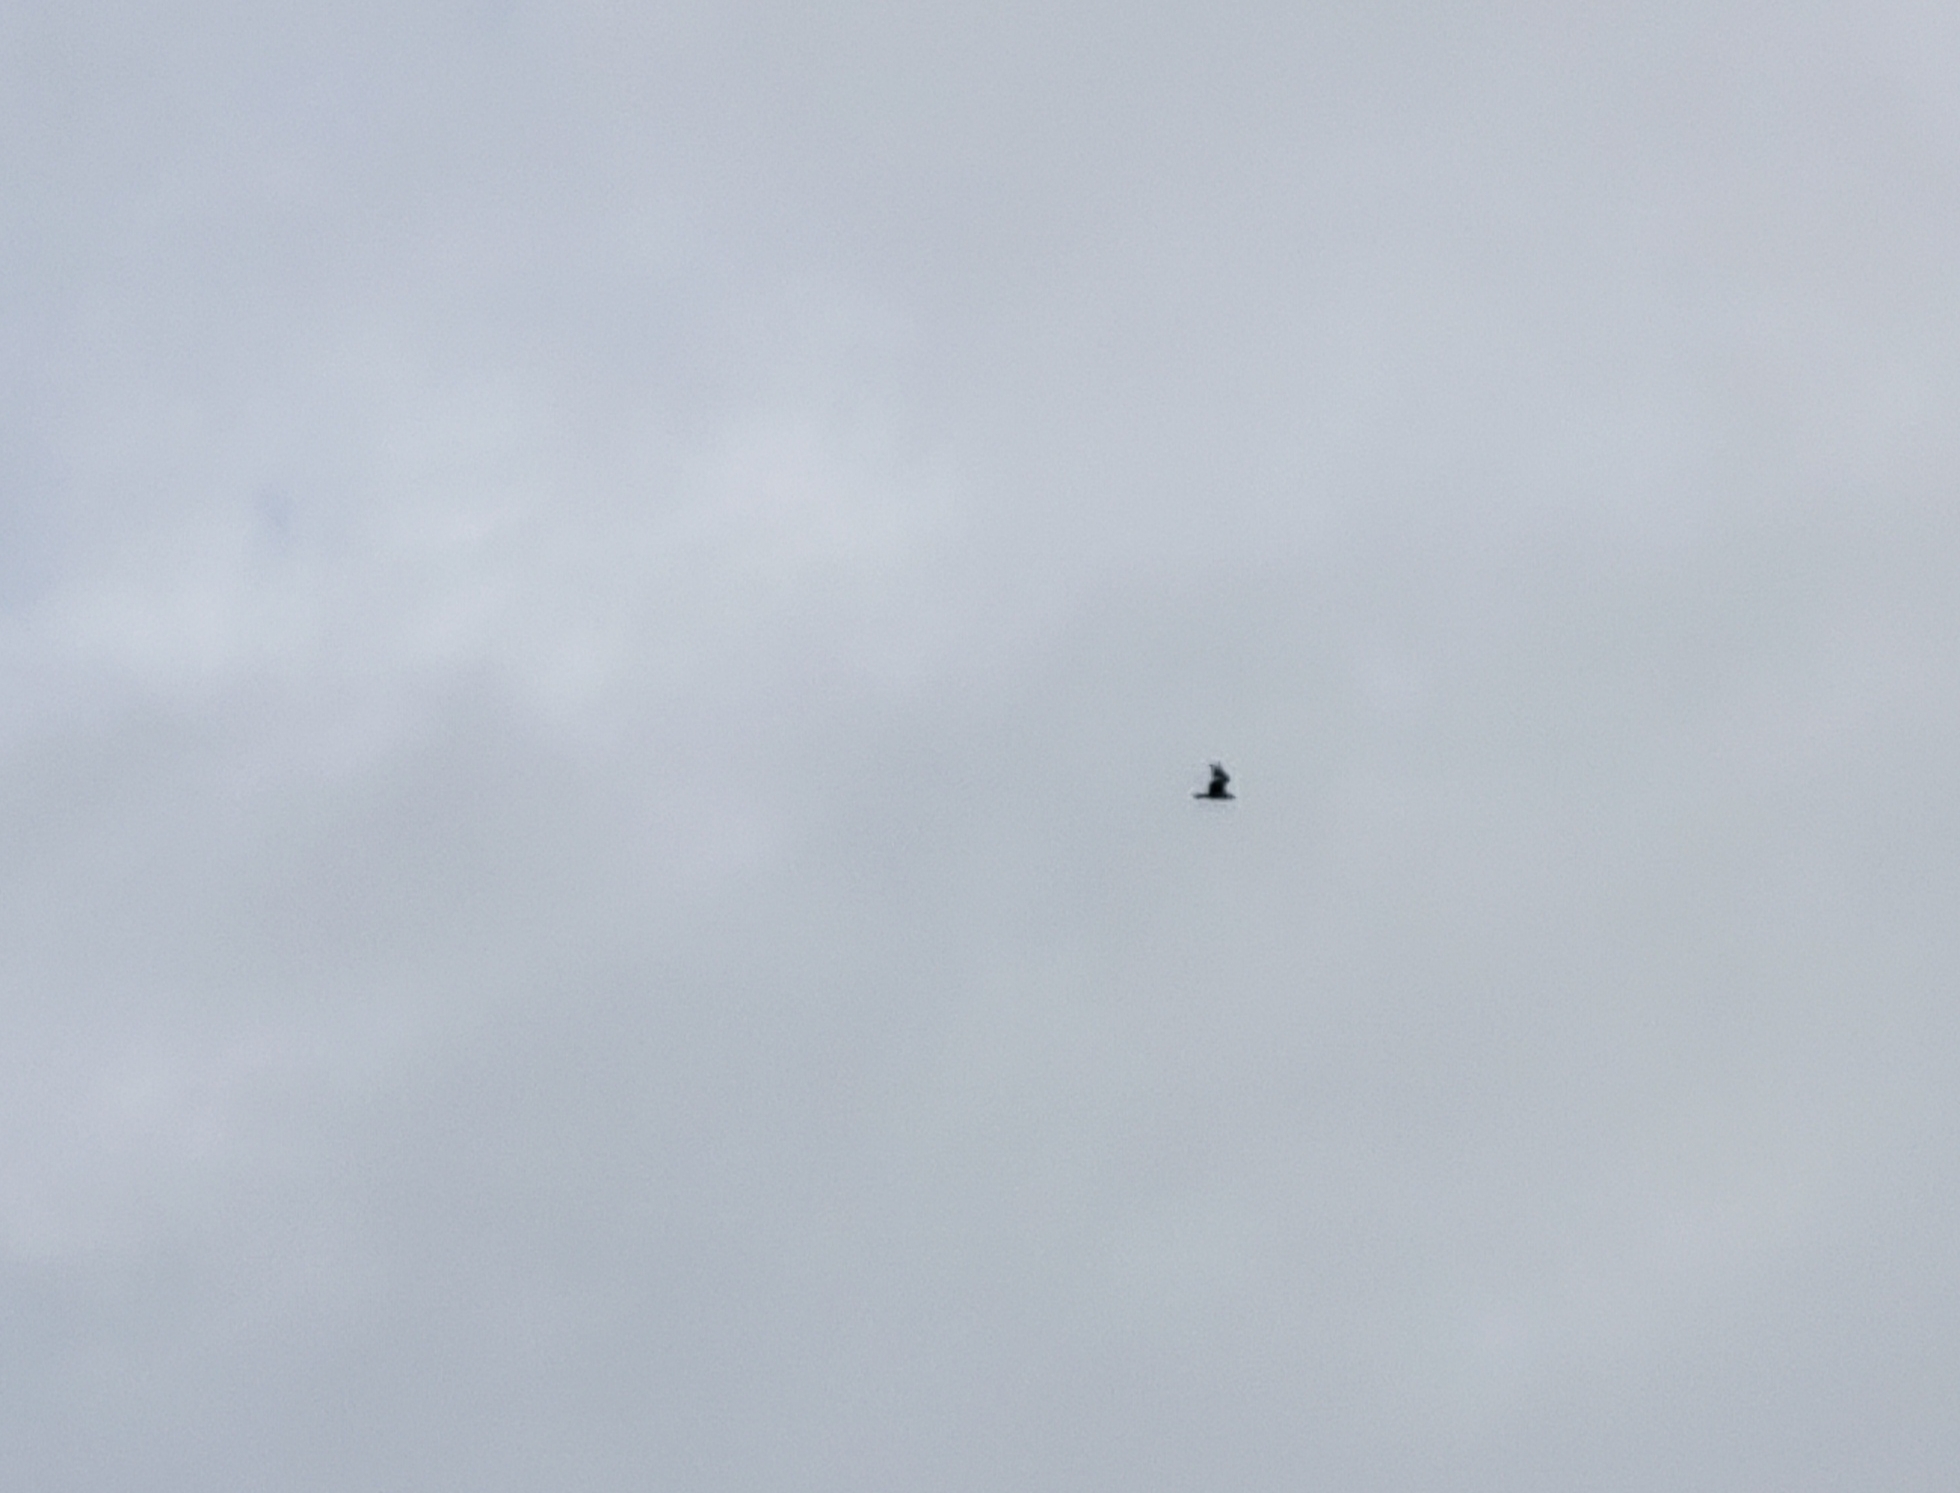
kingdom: Animalia
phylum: Chordata
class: Aves
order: Accipitriformes
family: Pandionidae
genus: Pandion
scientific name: Pandion haliaetus
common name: Osprey
